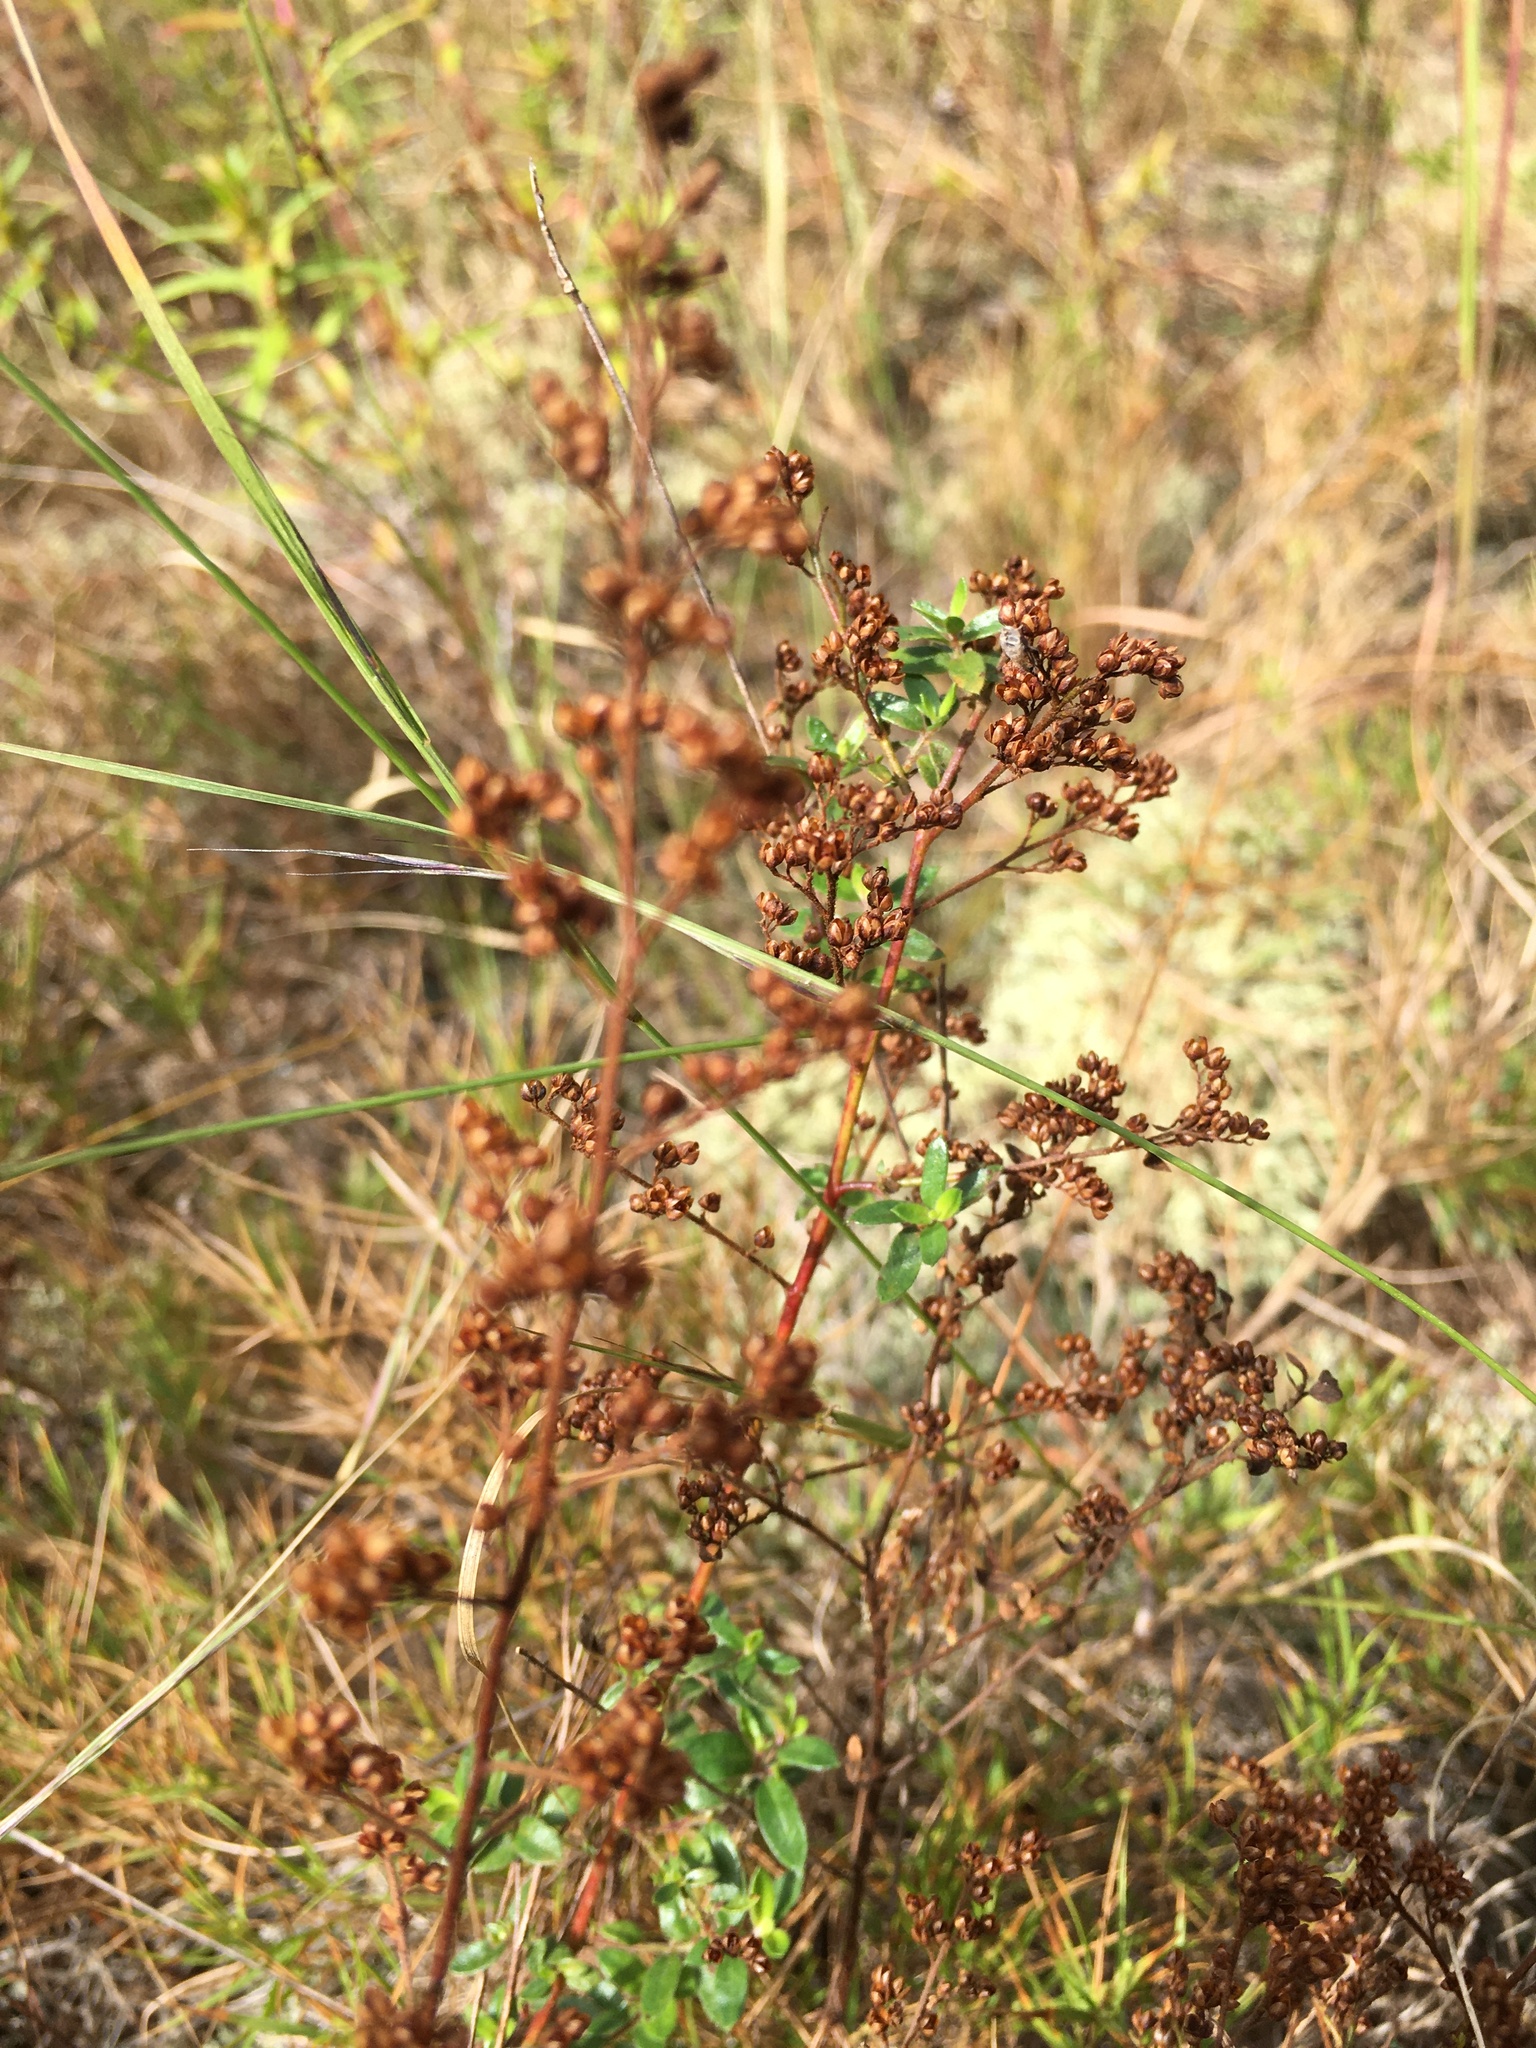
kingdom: Plantae
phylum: Tracheophyta
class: Magnoliopsida
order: Malvales
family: Cistaceae
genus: Lechea
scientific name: Lechea mucronata
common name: Hairy pinweed
